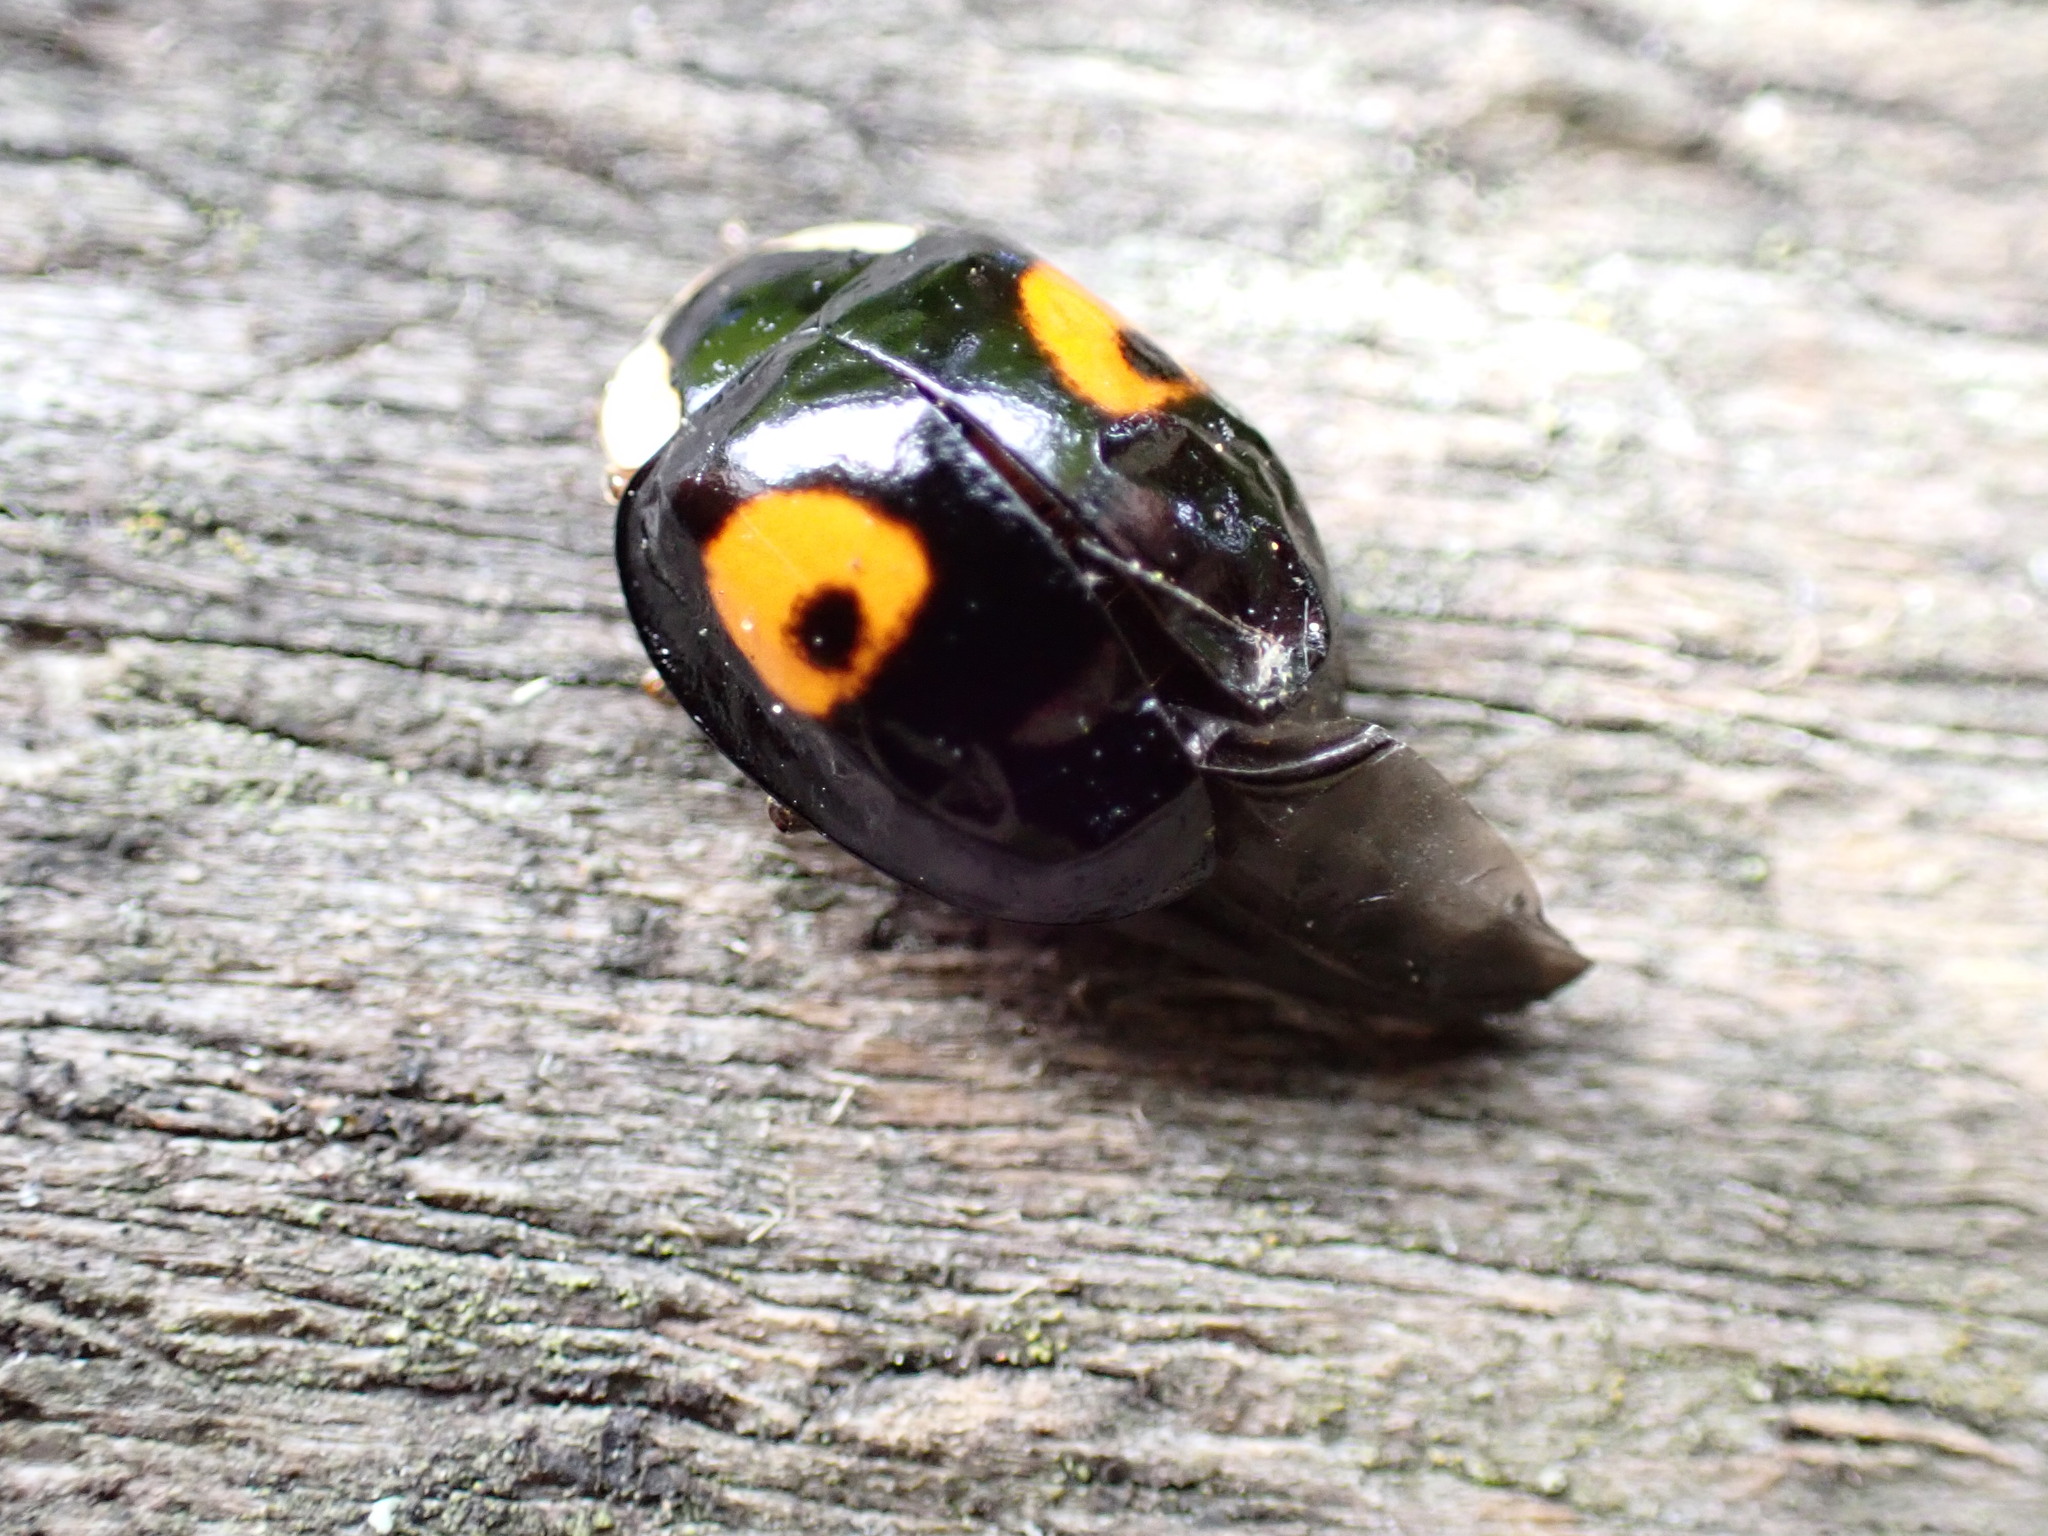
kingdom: Animalia
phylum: Arthropoda
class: Insecta
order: Coleoptera
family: Coccinellidae
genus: Harmonia
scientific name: Harmonia axyridis
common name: Harlequin ladybird
